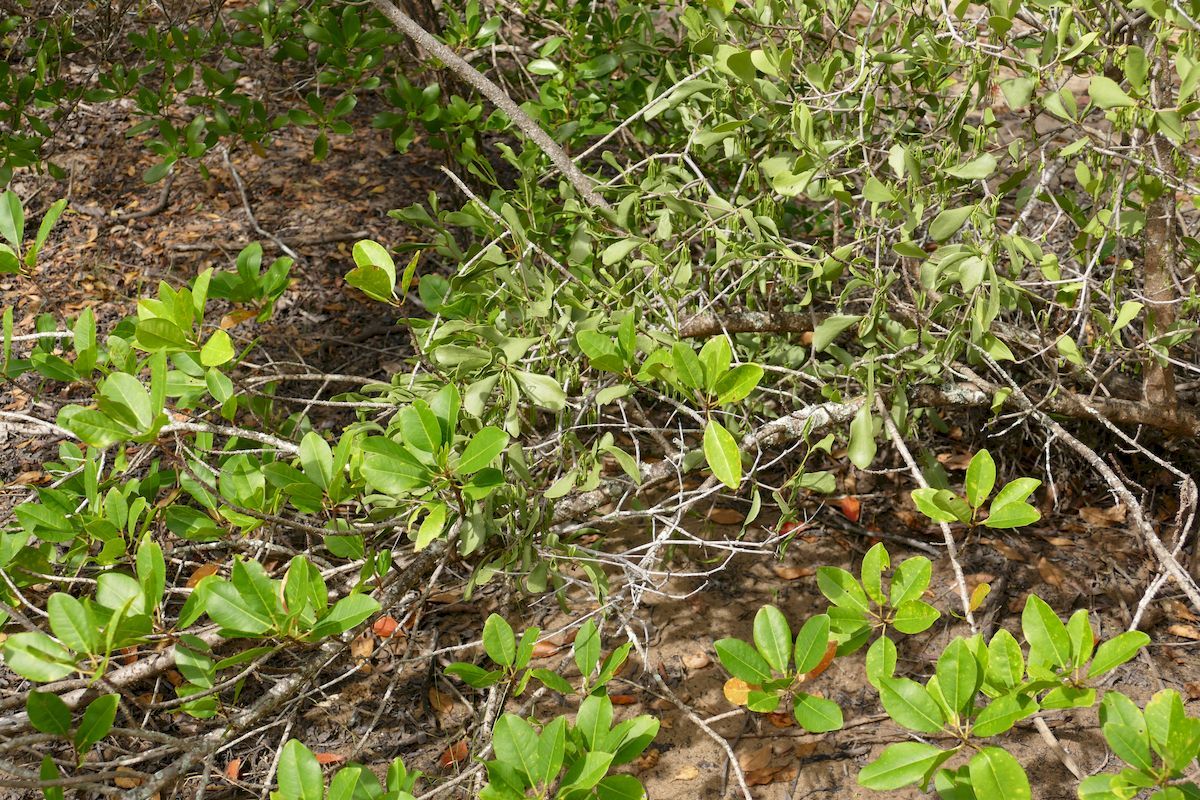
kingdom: Plantae
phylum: Tracheophyta
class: Magnoliopsida
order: Santalales
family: Loranthaceae
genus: Amyema
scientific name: Amyema conspicua
